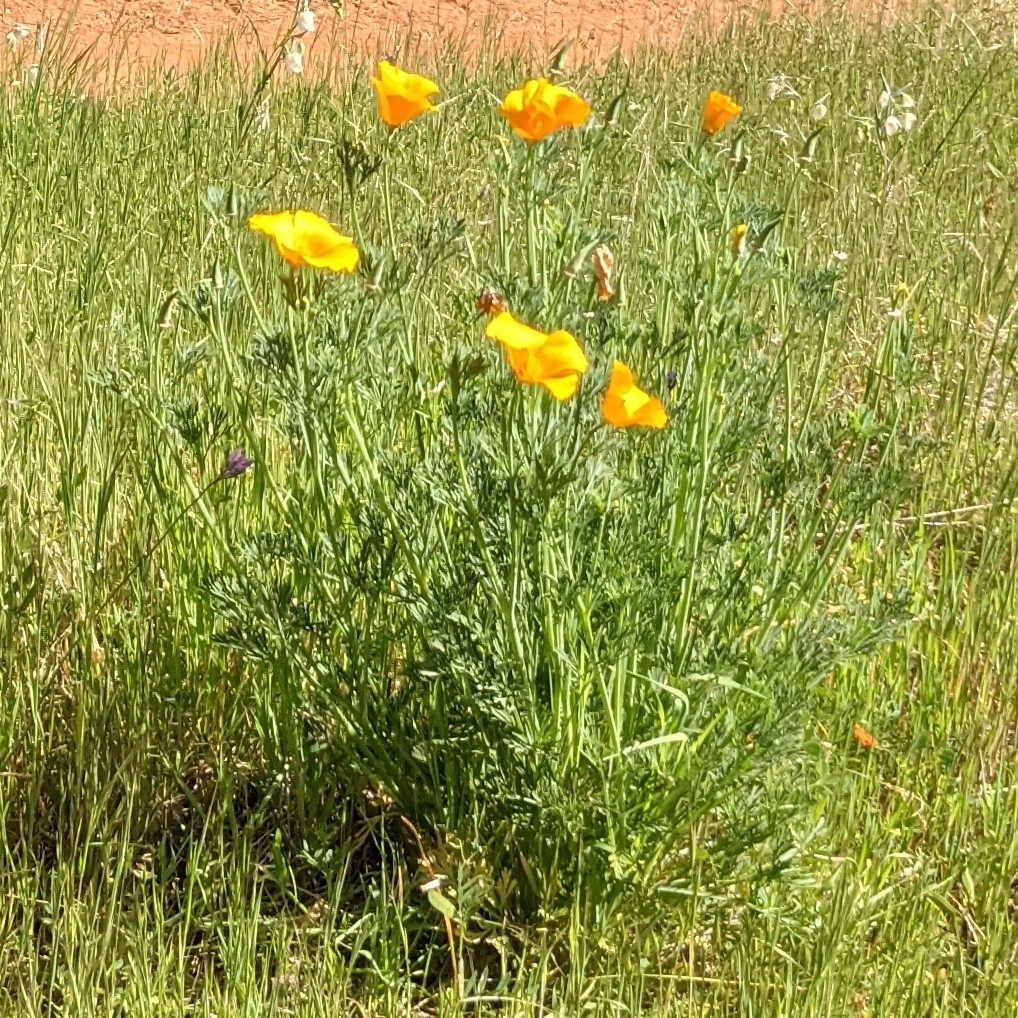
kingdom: Plantae
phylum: Tracheophyta
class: Magnoliopsida
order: Ranunculales
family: Papaveraceae
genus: Eschscholzia
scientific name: Eschscholzia californica
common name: California poppy
